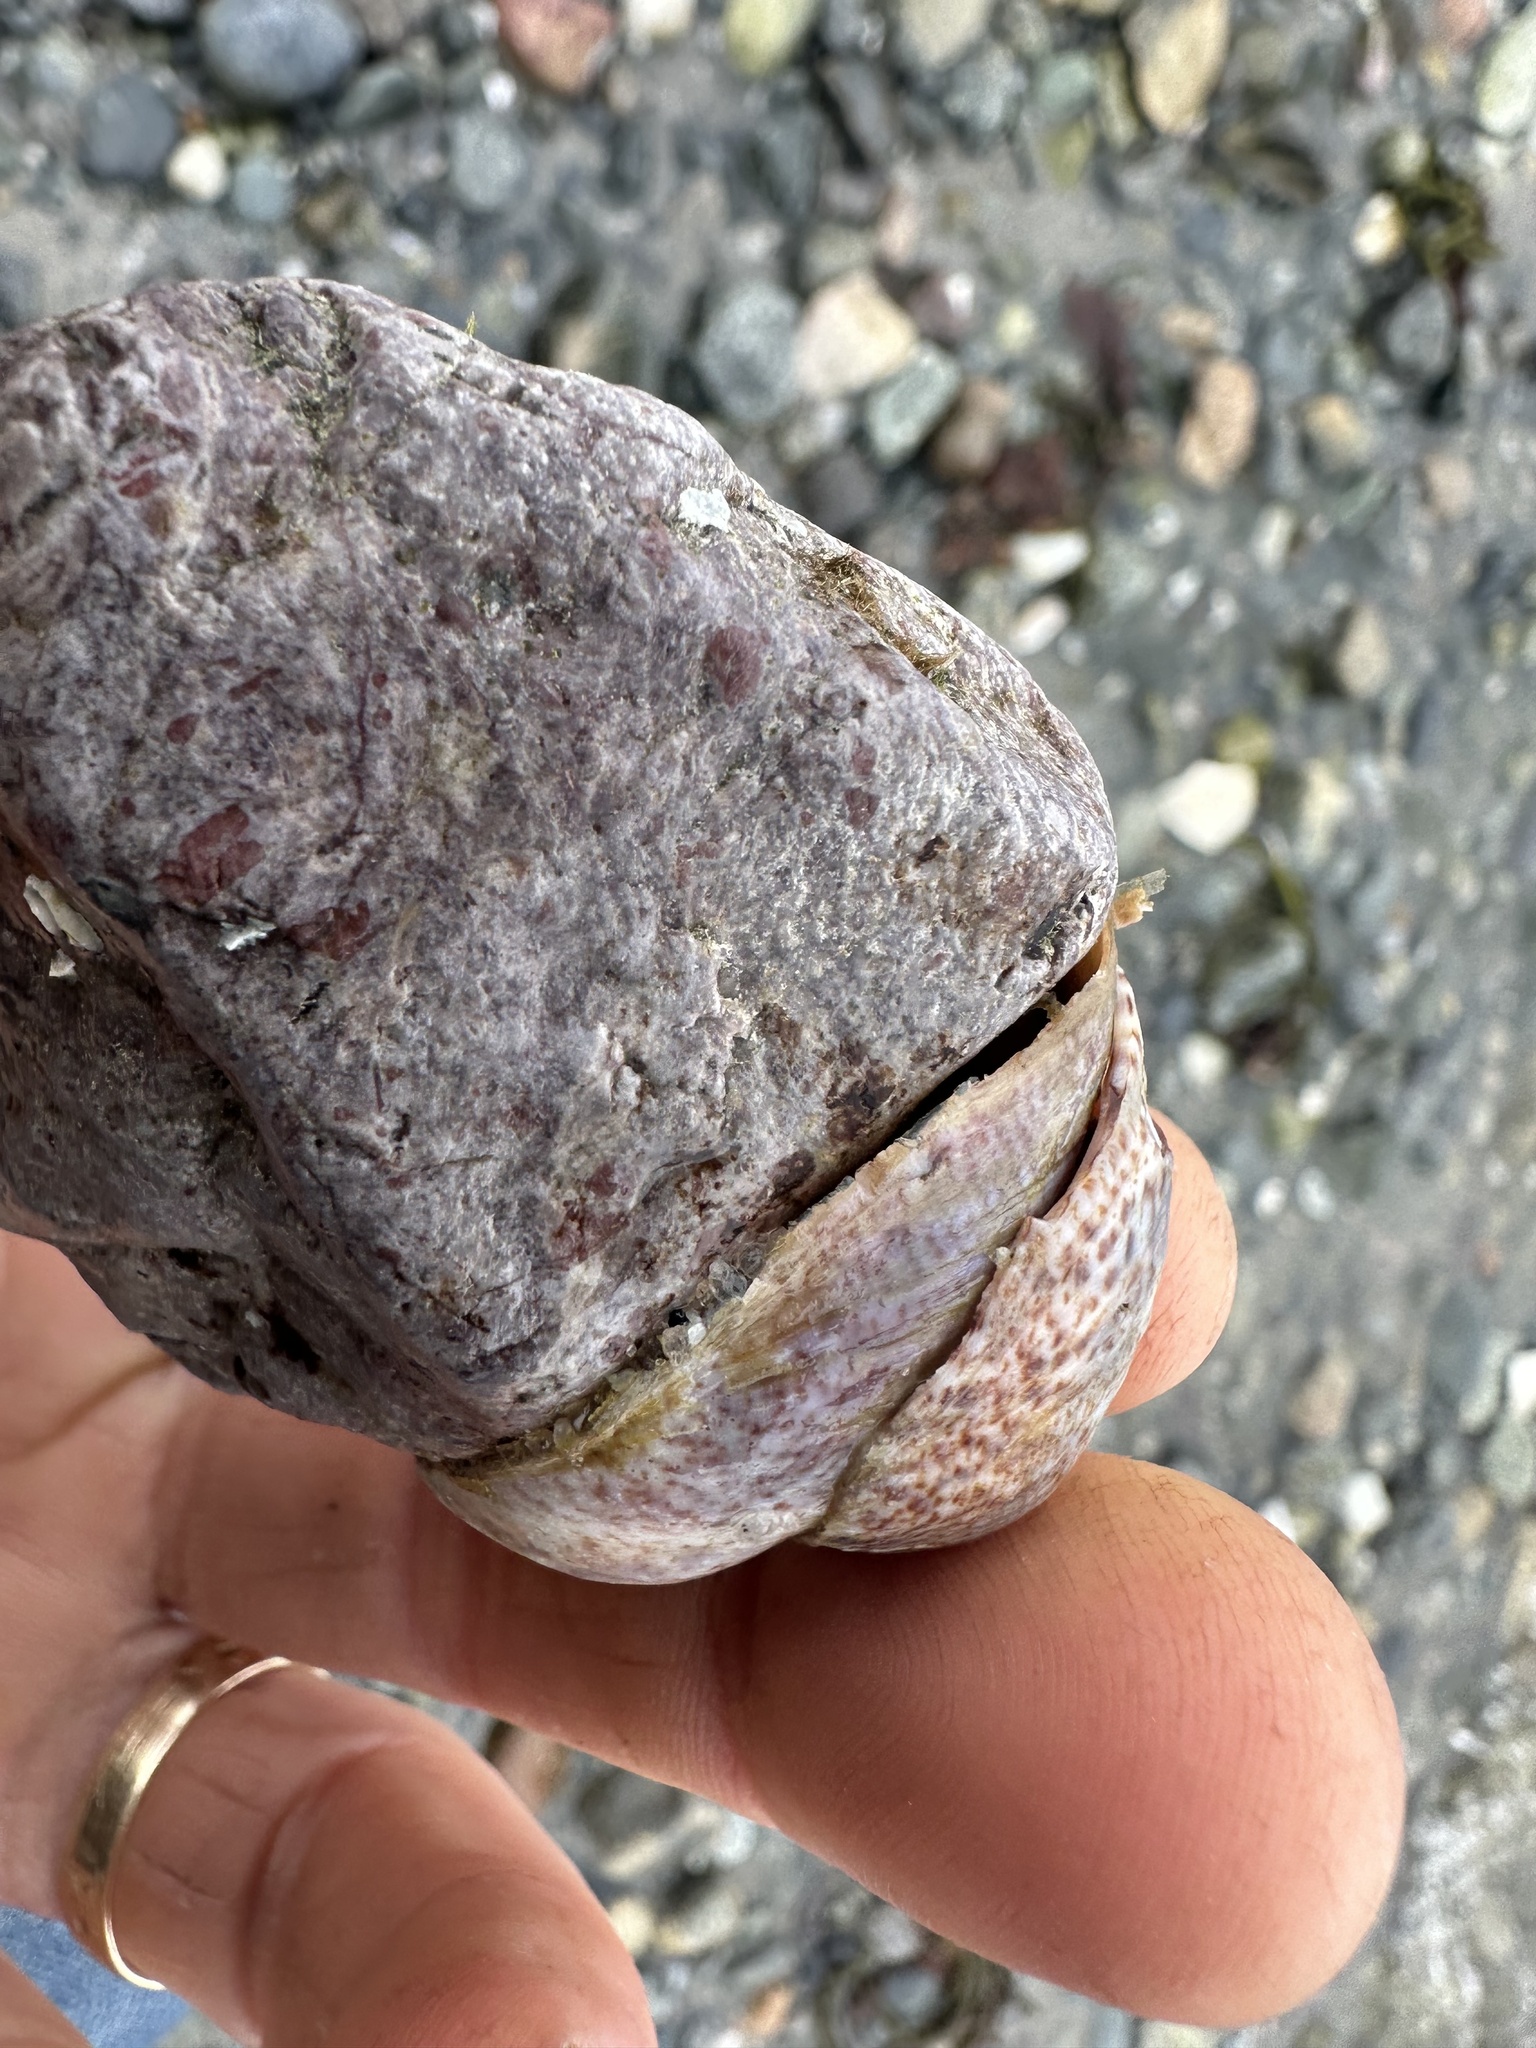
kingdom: Animalia
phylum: Mollusca
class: Gastropoda
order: Littorinimorpha
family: Calyptraeidae
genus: Crepidula
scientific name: Crepidula fornicata
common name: Slipper limpet
